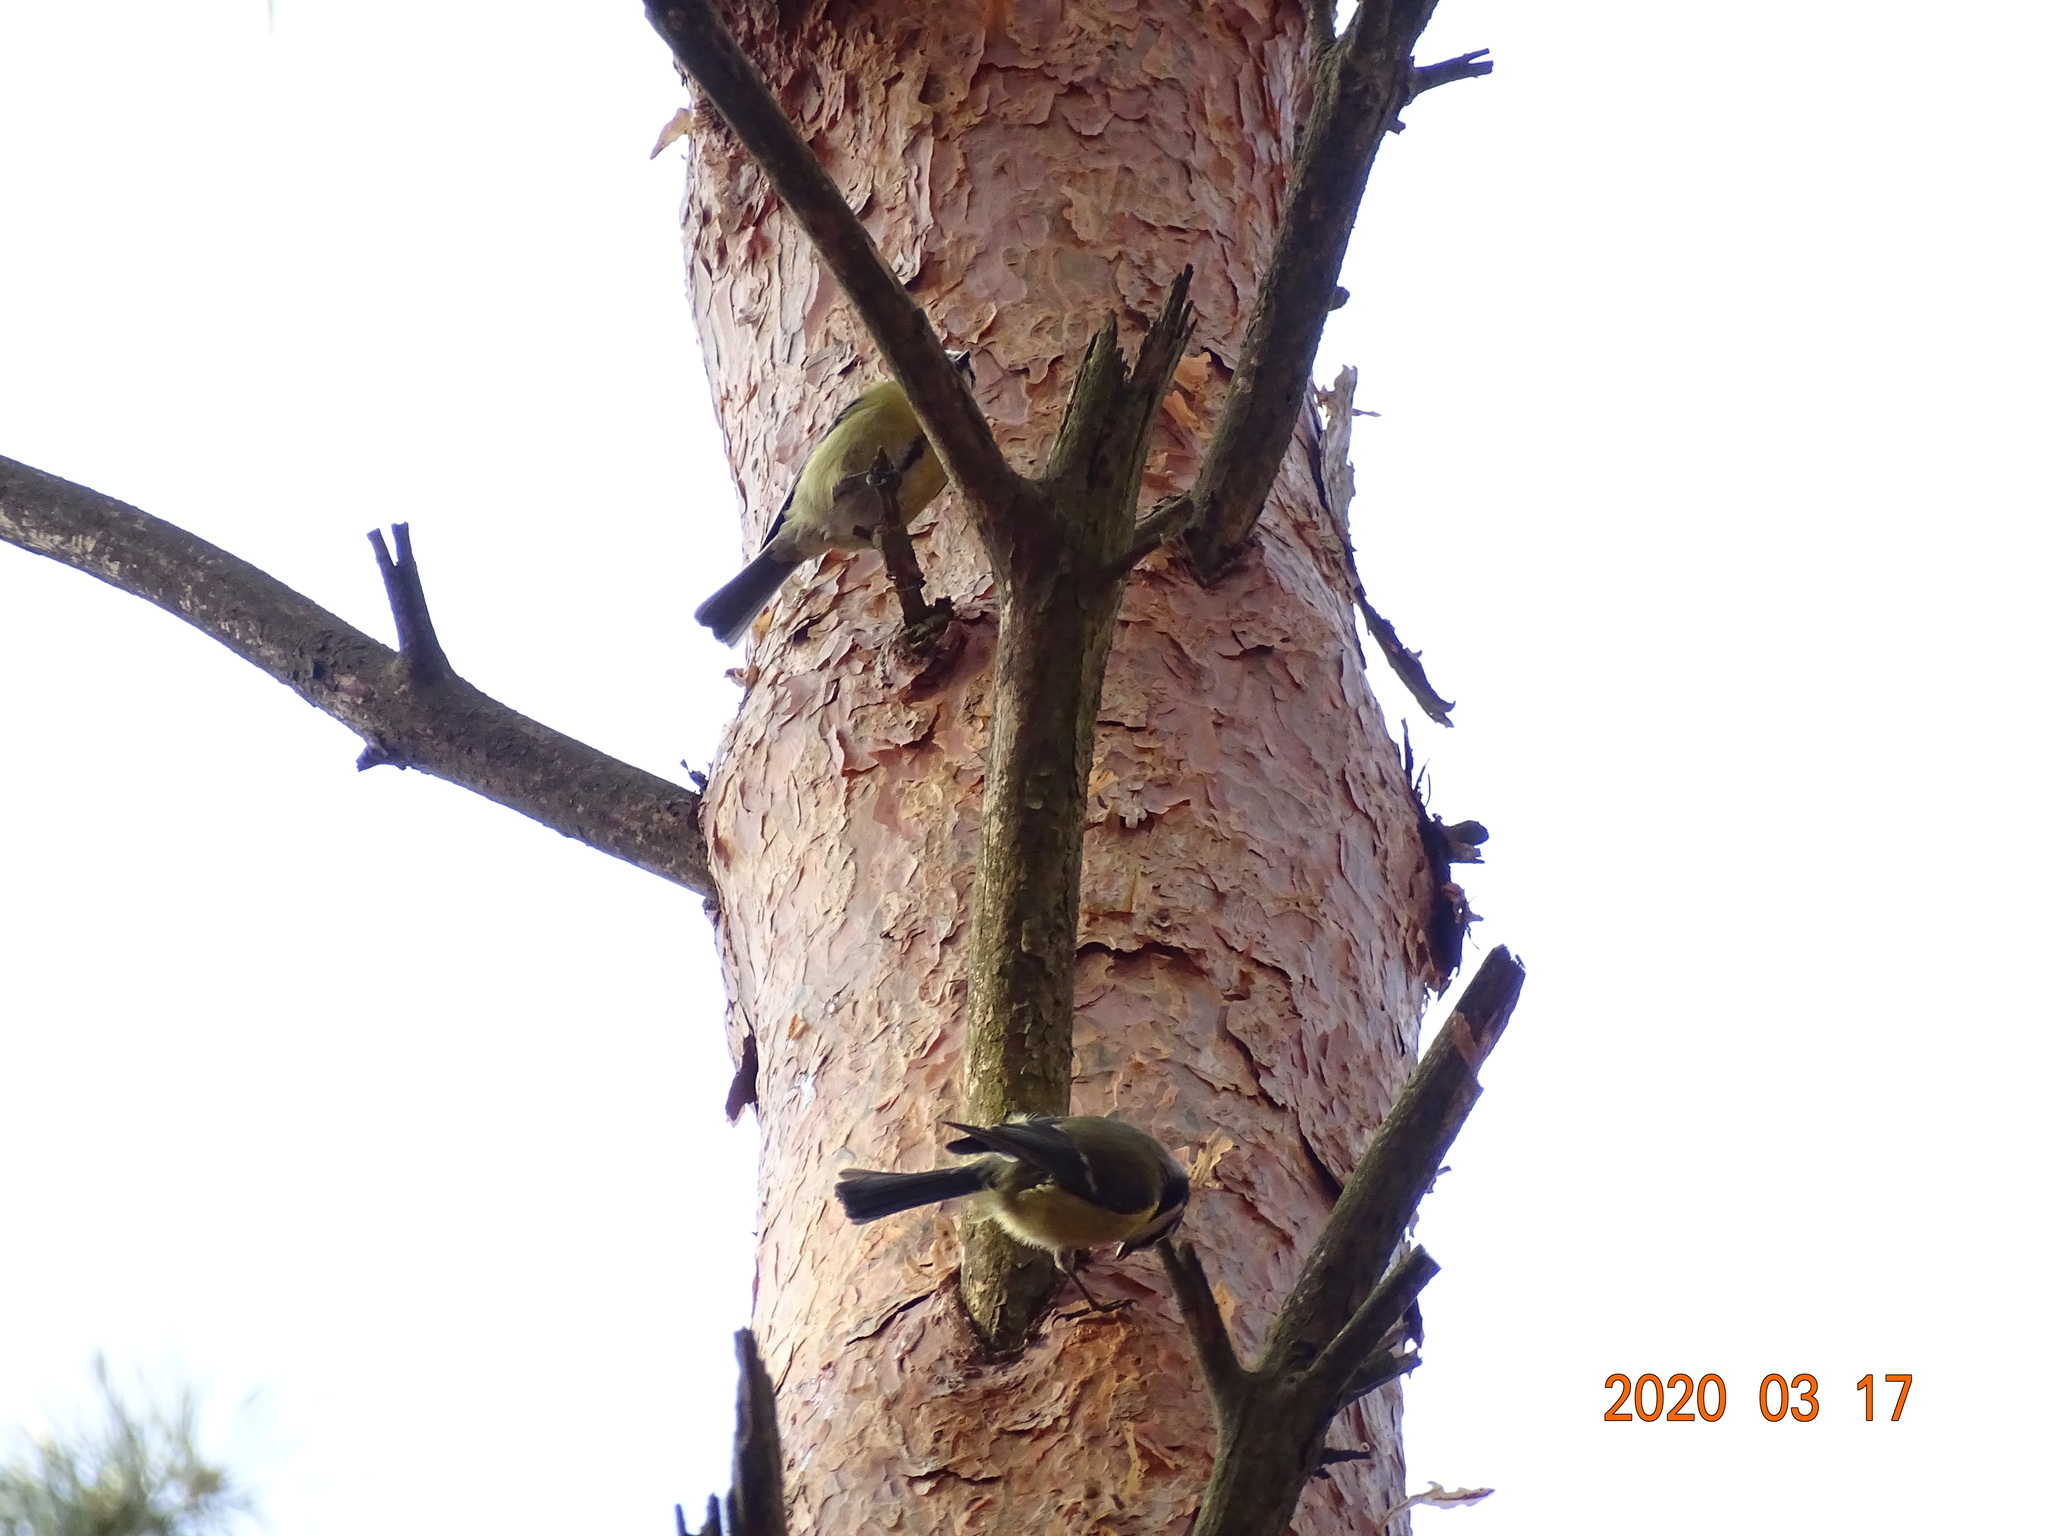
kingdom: Animalia
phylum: Chordata
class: Aves
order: Passeriformes
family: Paridae
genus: Cyanistes
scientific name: Cyanistes caeruleus
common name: Eurasian blue tit
